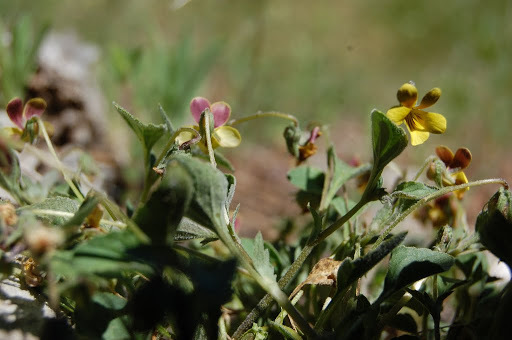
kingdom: Plantae
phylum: Tracheophyta
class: Magnoliopsida
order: Malpighiales
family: Violaceae
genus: Viola
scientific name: Viola purpurea
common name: Pine violet
